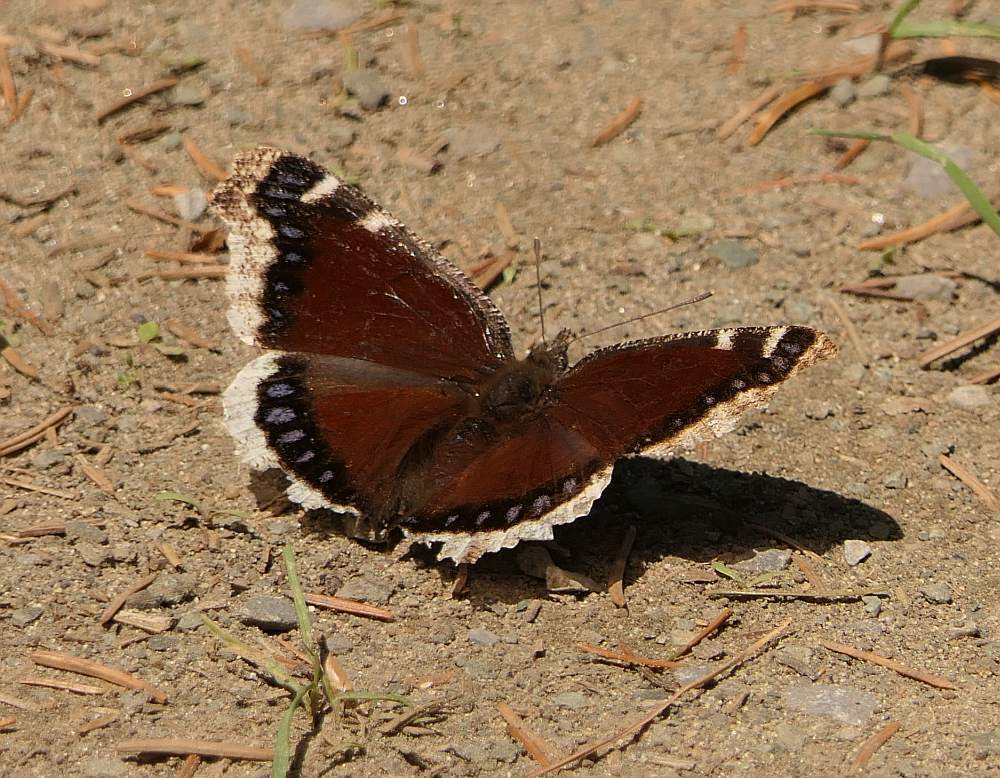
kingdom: Animalia
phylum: Arthropoda
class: Insecta
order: Lepidoptera
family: Nymphalidae
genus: Nymphalis
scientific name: Nymphalis antiopa
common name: Camberwell beauty
